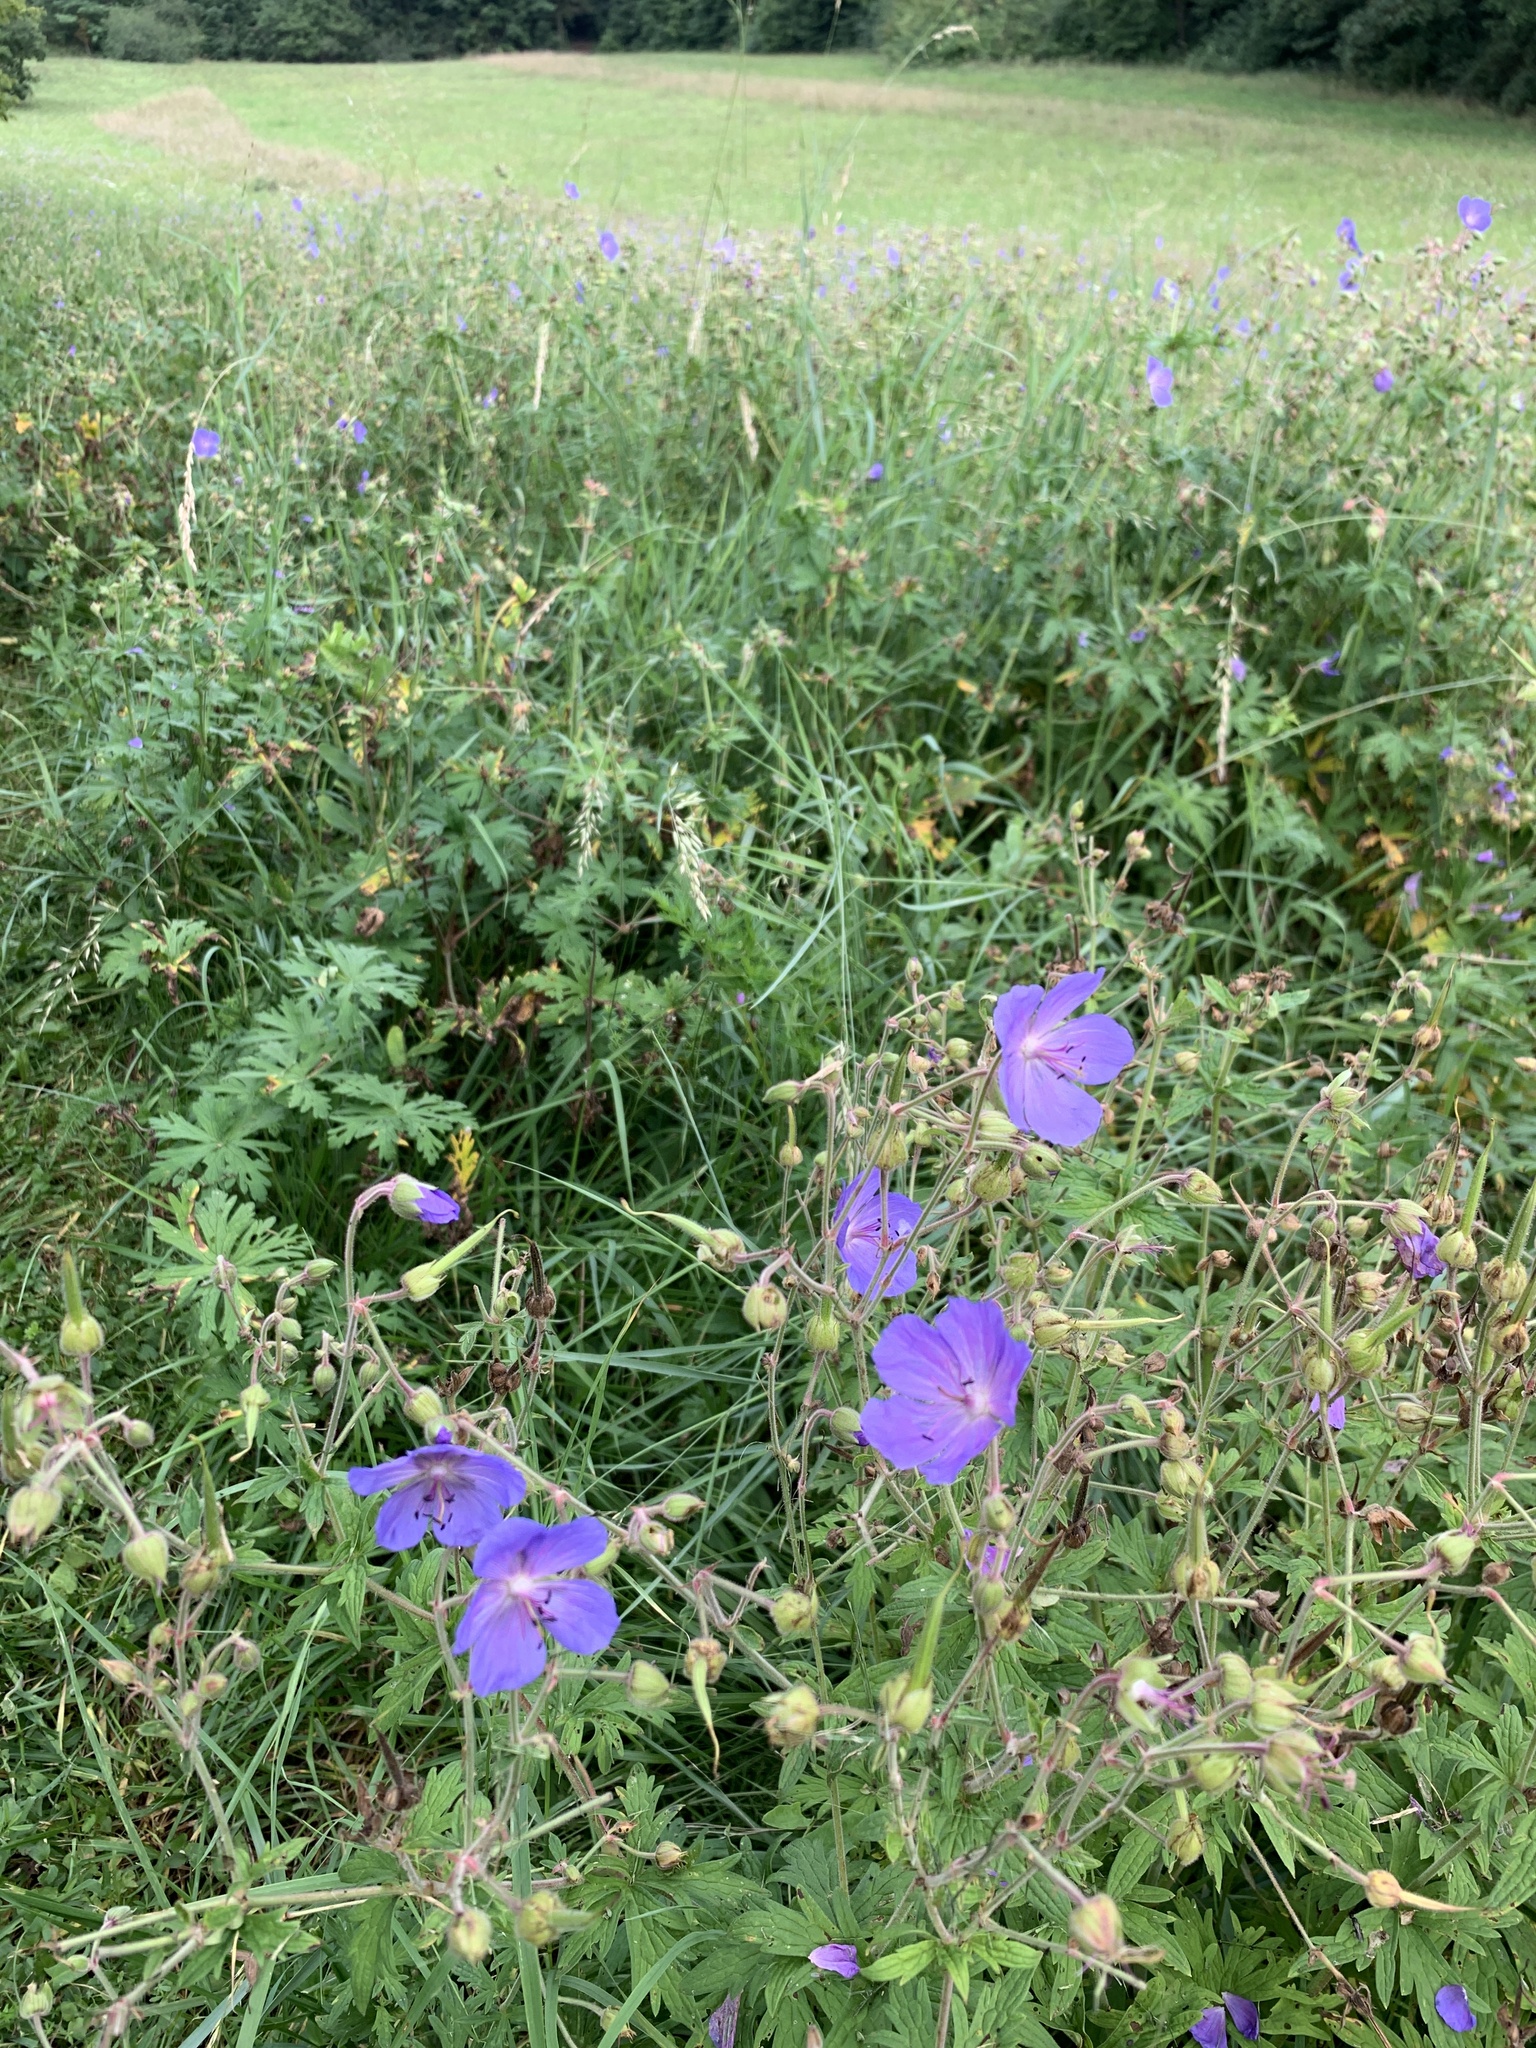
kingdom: Plantae
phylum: Tracheophyta
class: Magnoliopsida
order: Geraniales
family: Geraniaceae
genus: Geranium
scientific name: Geranium pratense
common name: Meadow crane's-bill
